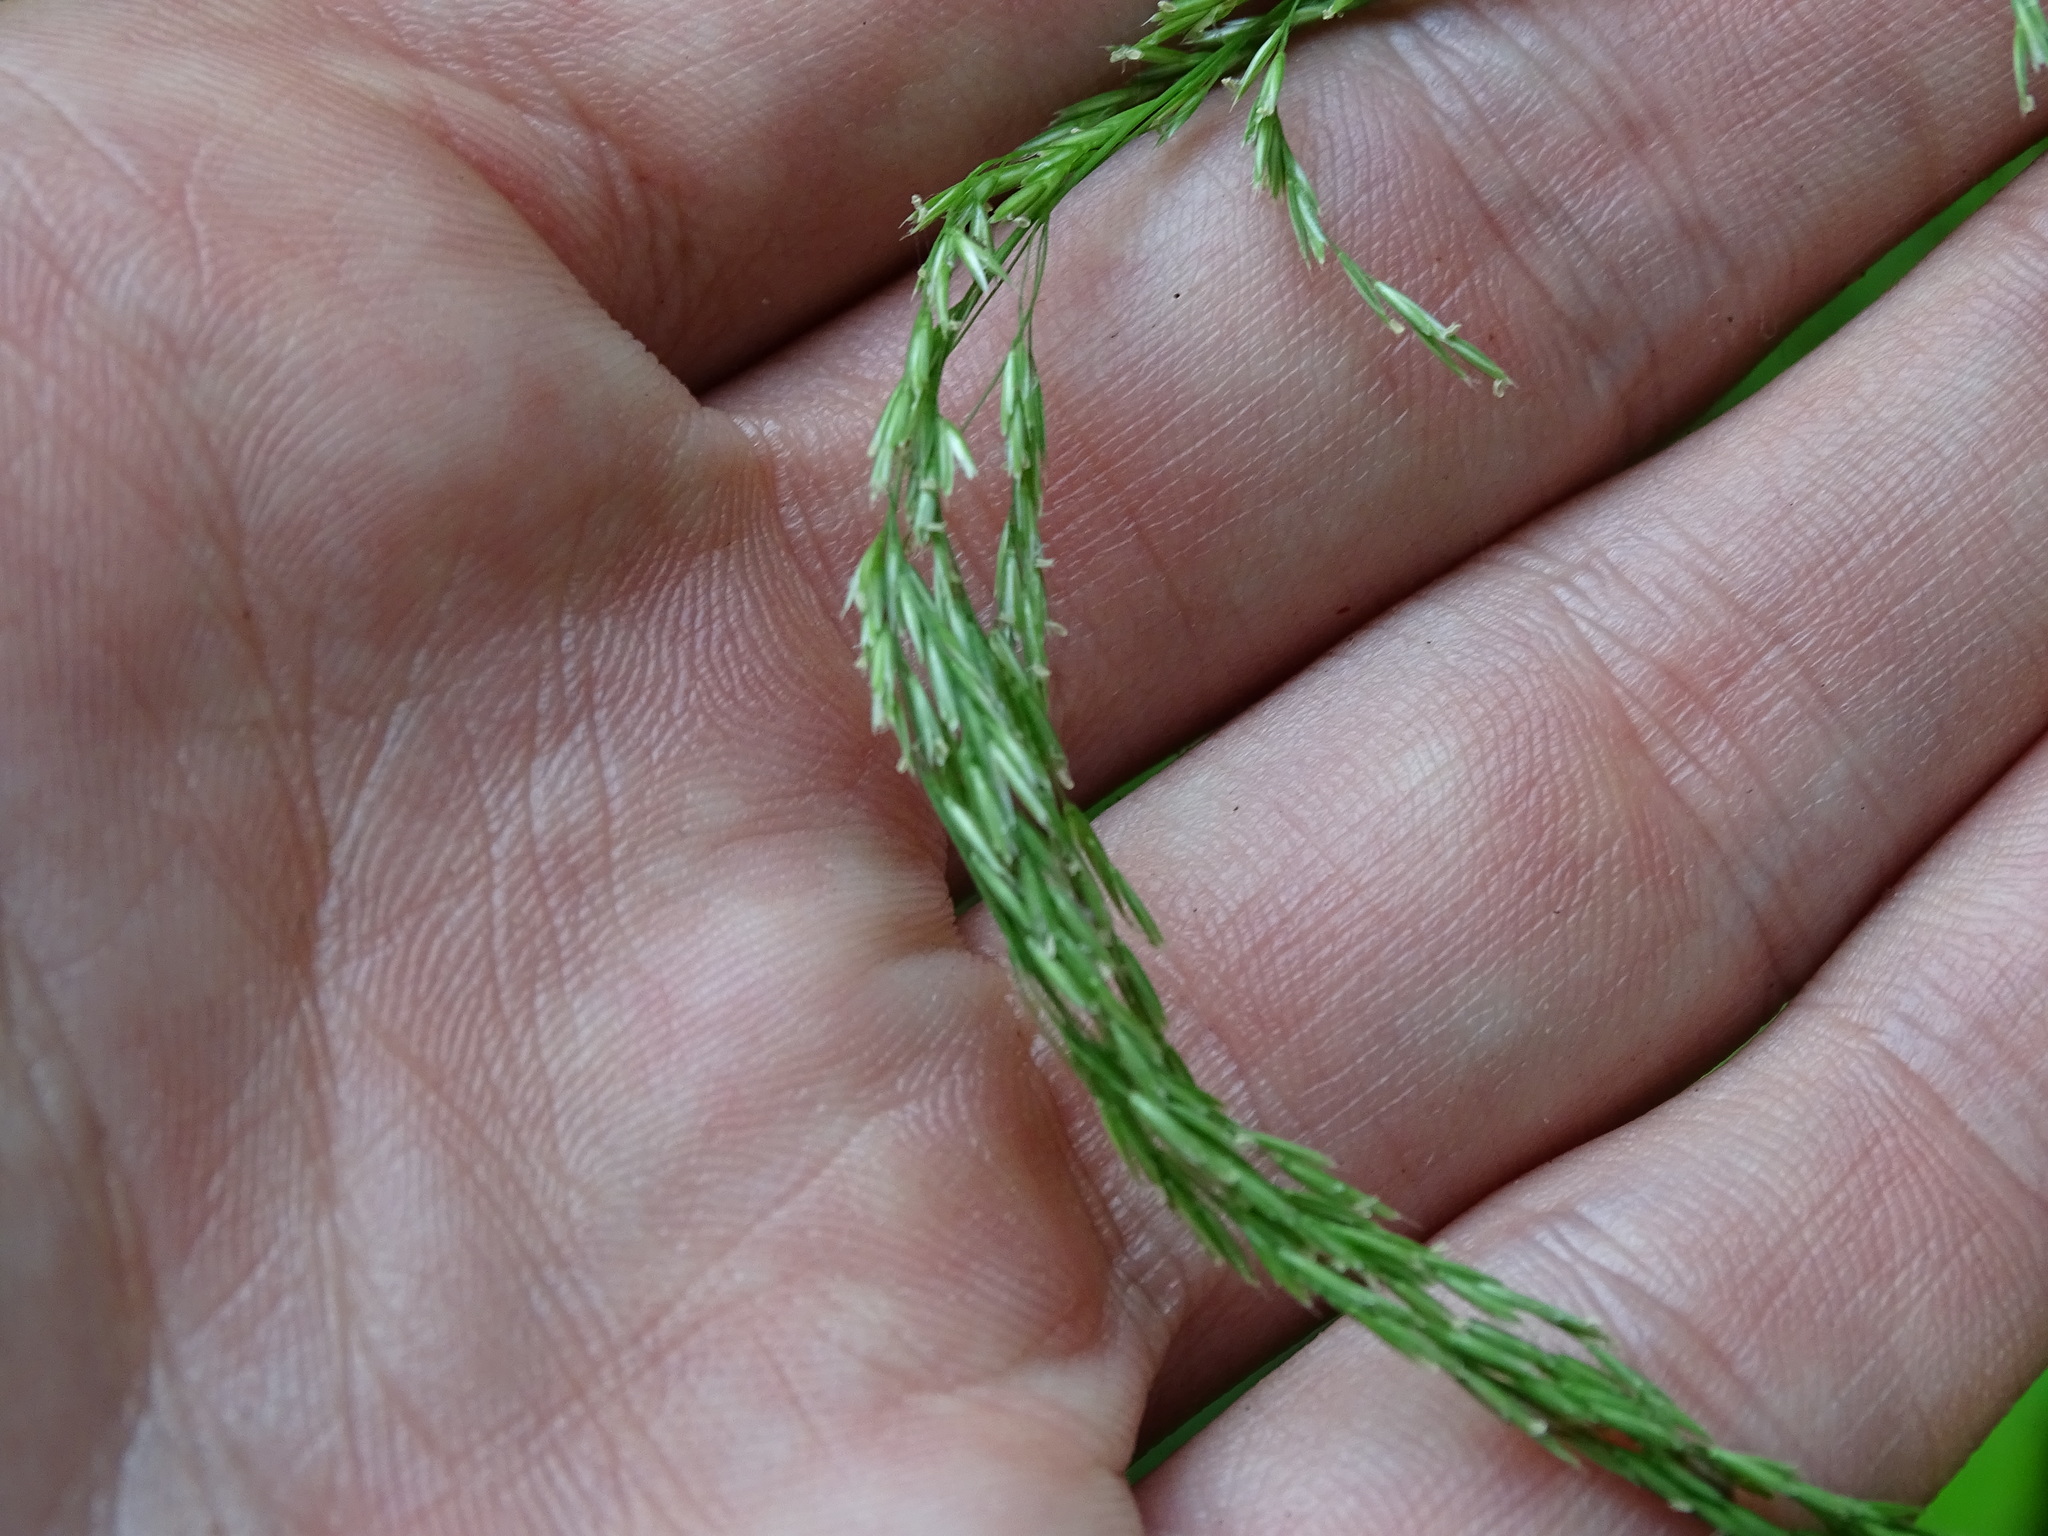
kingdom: Plantae
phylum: Tracheophyta
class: Liliopsida
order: Poales
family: Poaceae
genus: Cinna
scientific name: Cinna latifolia
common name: Drooping woodreed
